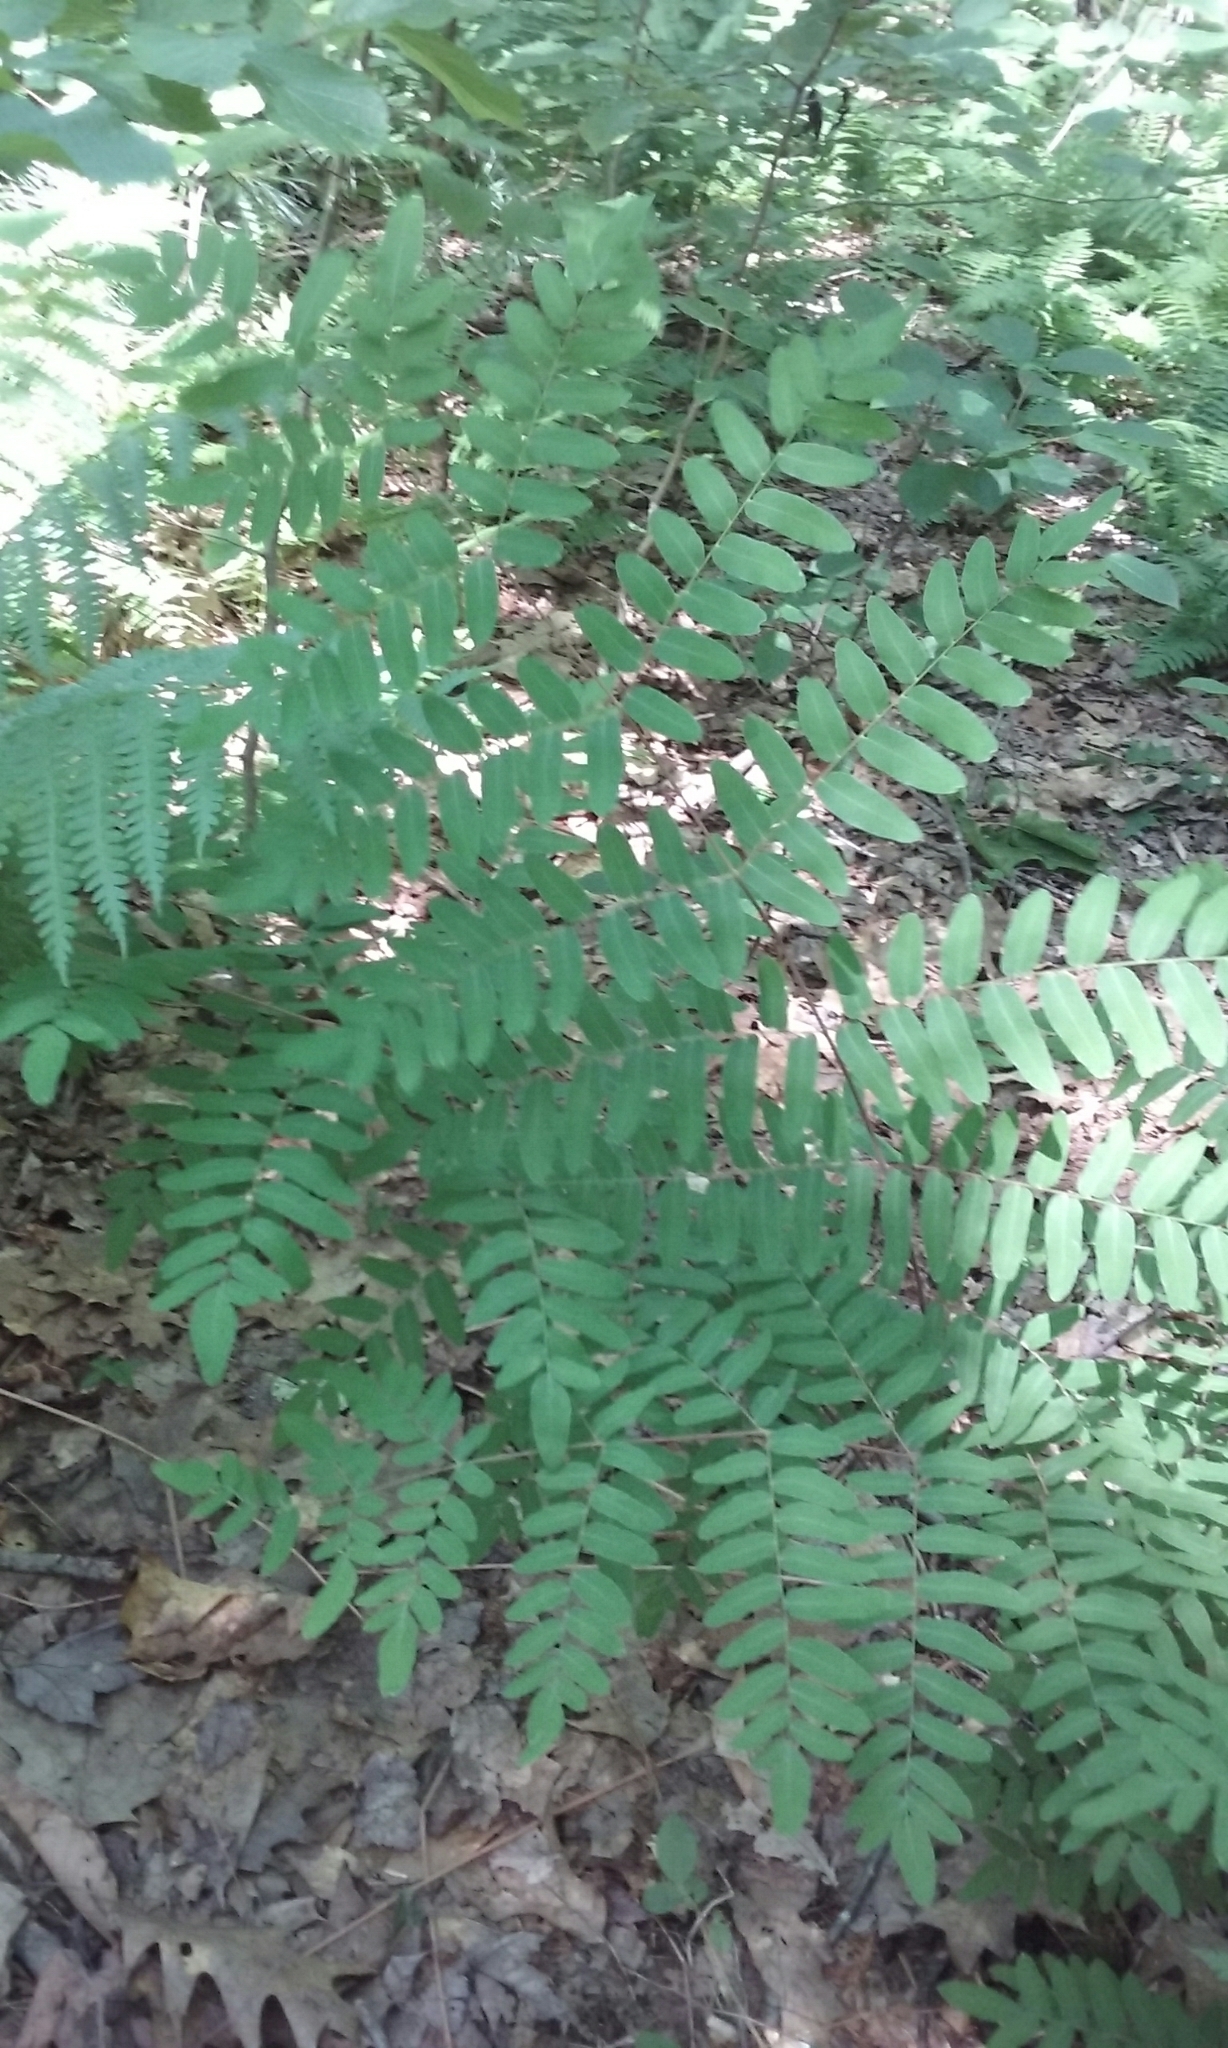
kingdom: Plantae
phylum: Tracheophyta
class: Polypodiopsida
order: Osmundales
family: Osmundaceae
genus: Osmunda
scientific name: Osmunda spectabilis
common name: American royal fern
